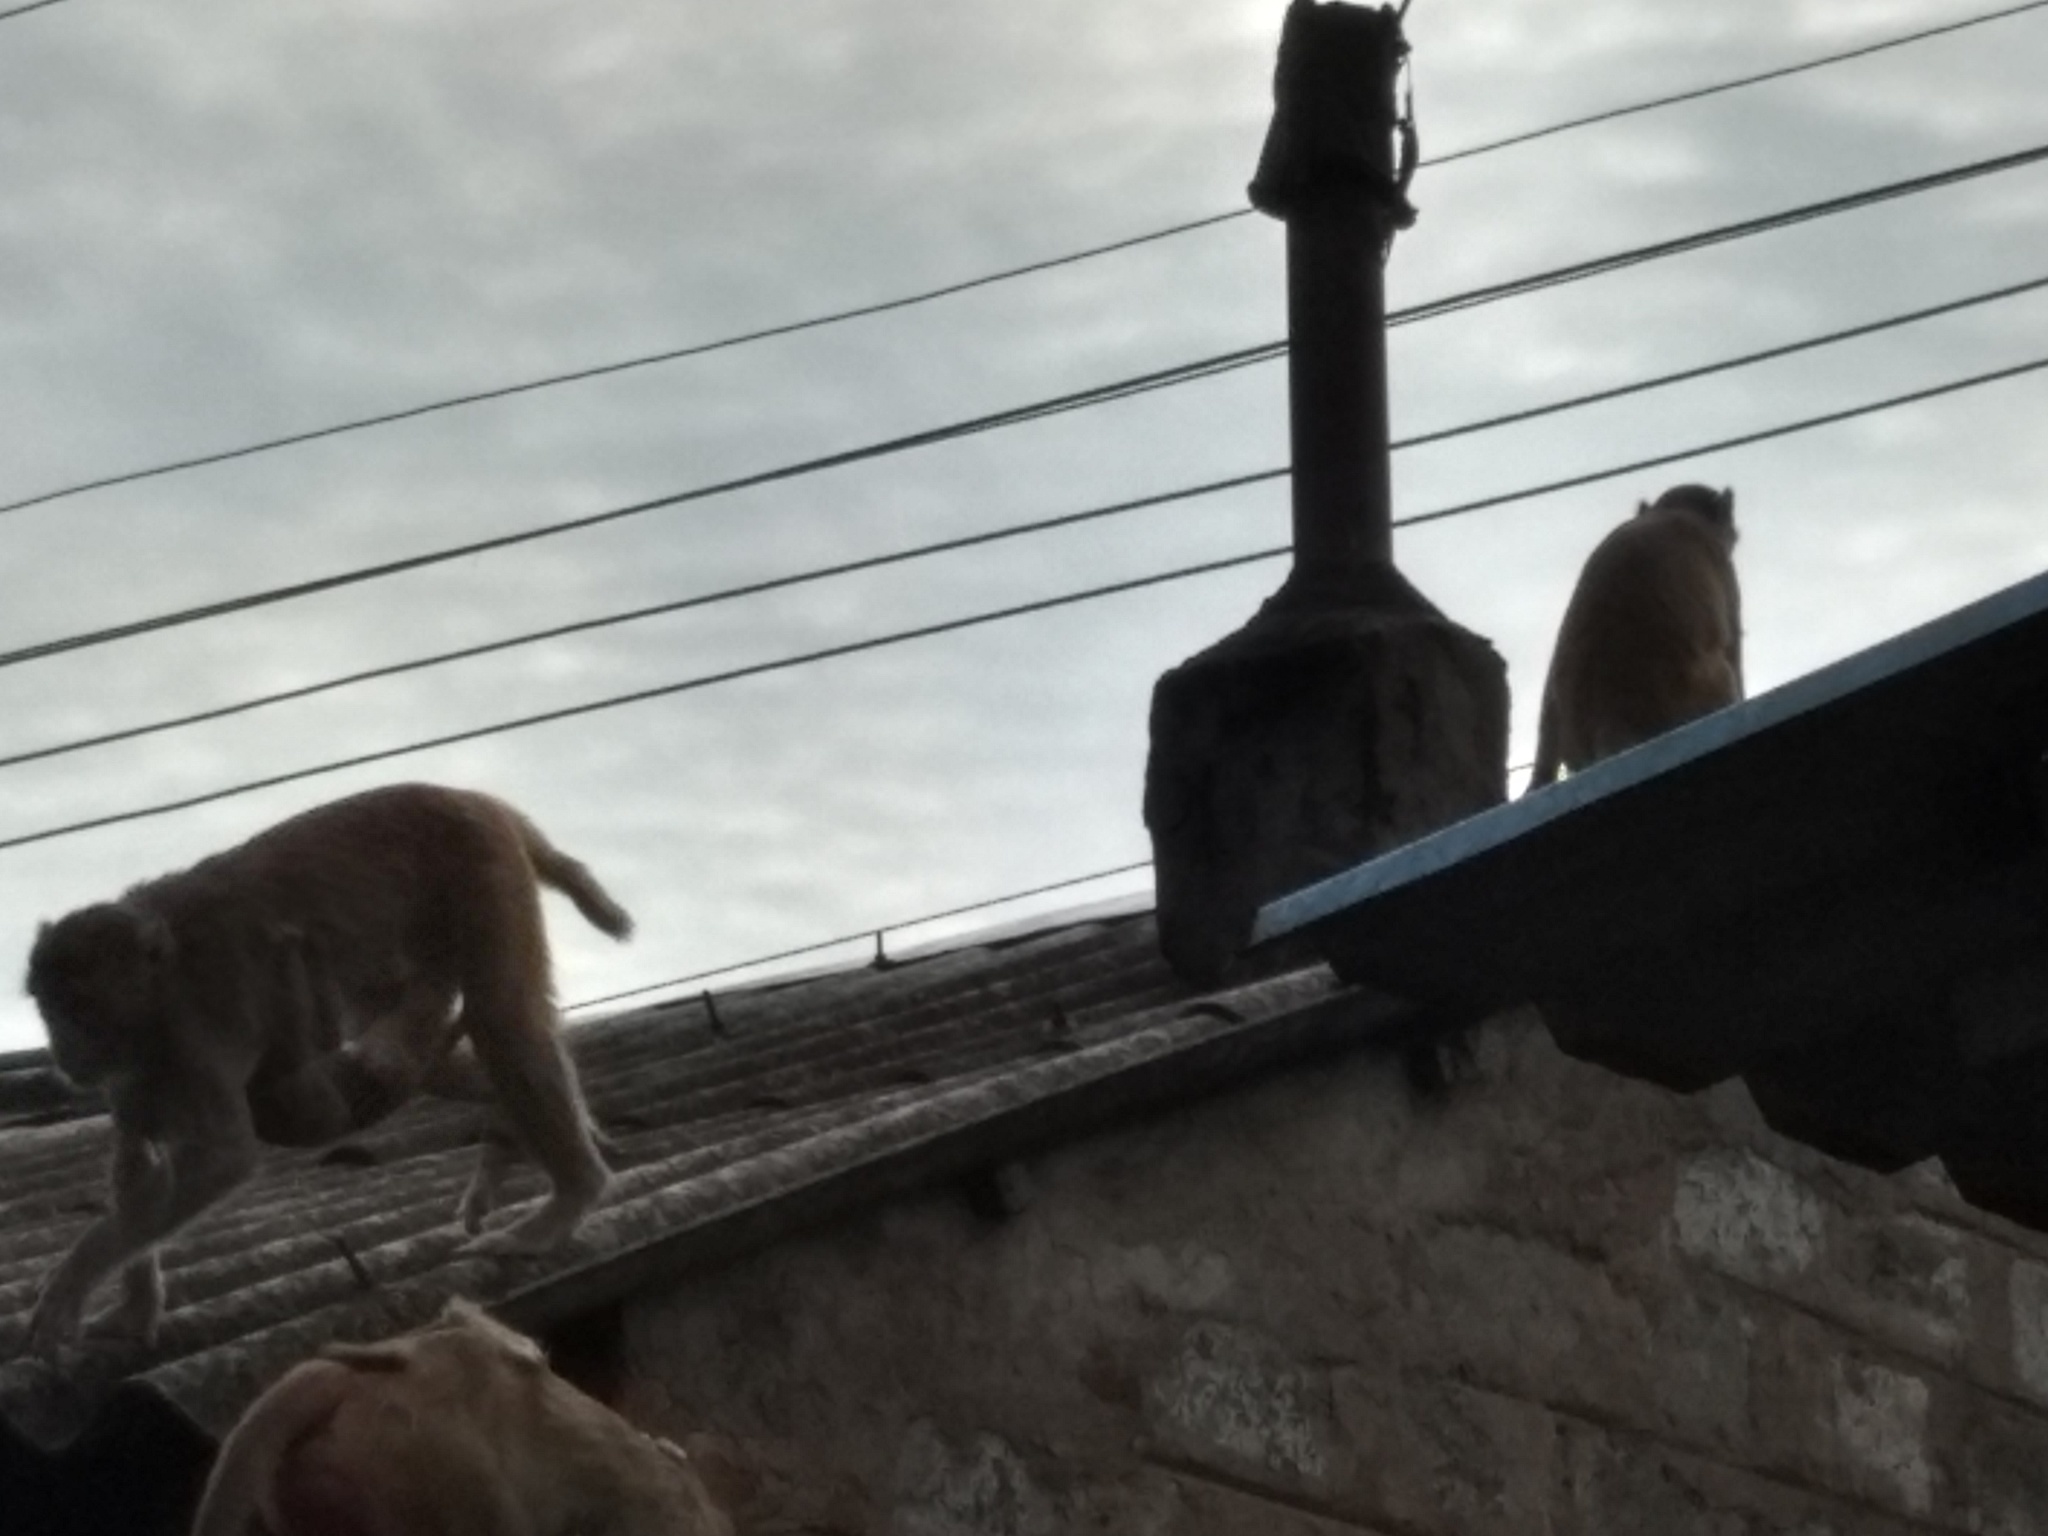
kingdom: Animalia
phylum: Chordata
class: Mammalia
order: Primates
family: Cercopithecidae
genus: Macaca
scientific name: Macaca mulatta
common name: Rhesus monkey
